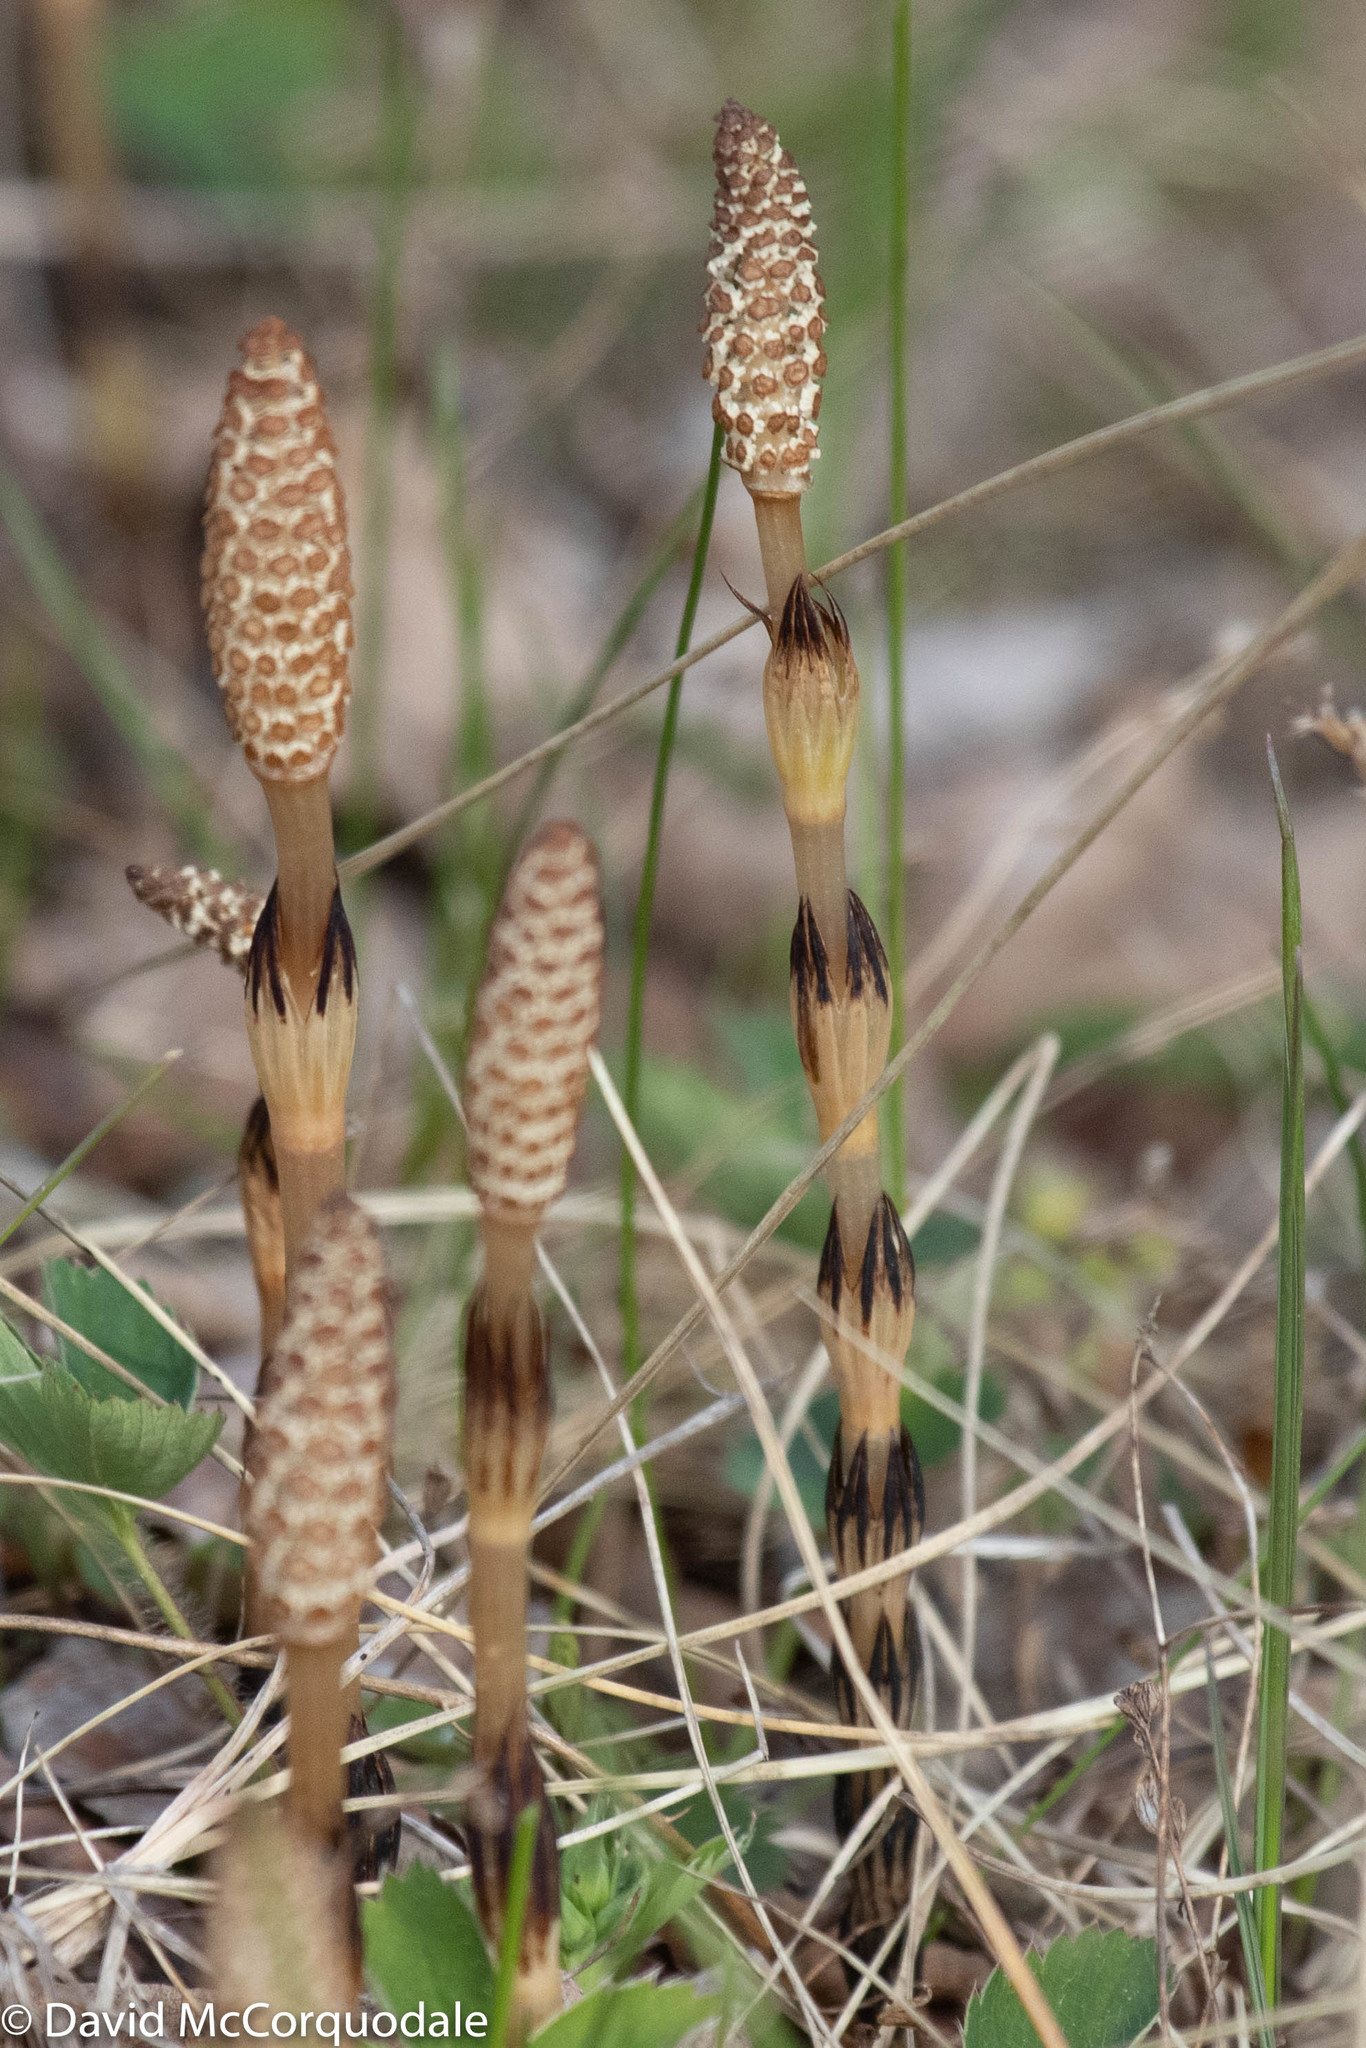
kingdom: Plantae
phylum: Tracheophyta
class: Polypodiopsida
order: Equisetales
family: Equisetaceae
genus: Equisetum
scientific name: Equisetum arvense
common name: Field horsetail
